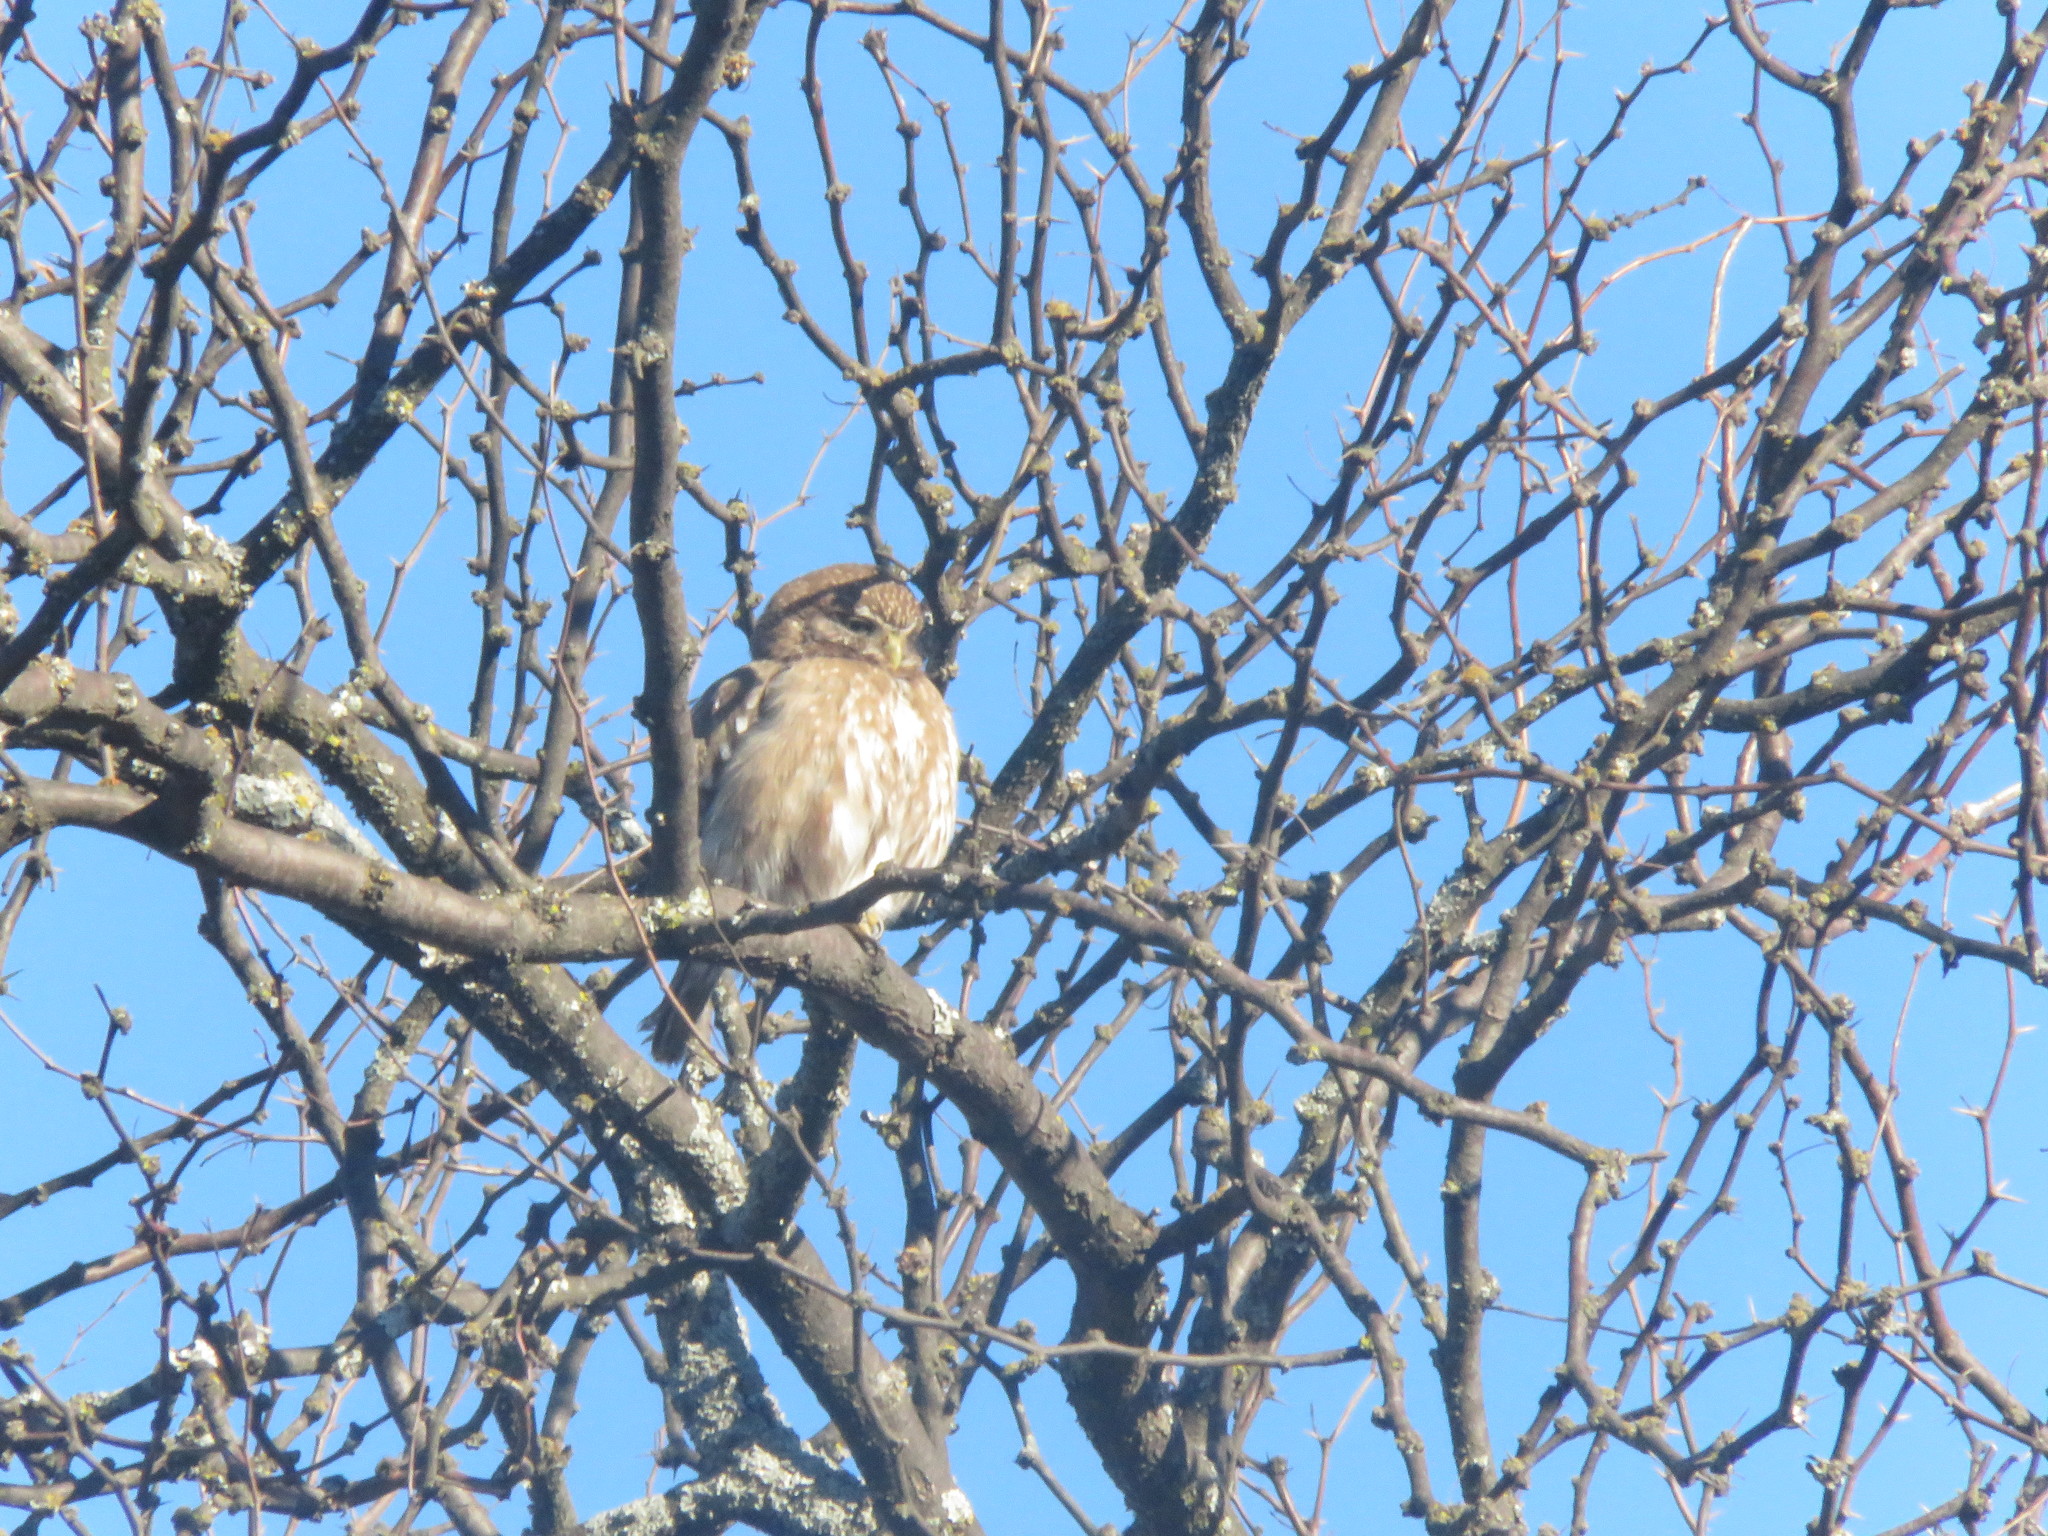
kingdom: Animalia
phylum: Chordata
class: Aves
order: Strigiformes
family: Strigidae
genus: Glaucidium
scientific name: Glaucidium brasilianum
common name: Ferruginous pygmy-owl
